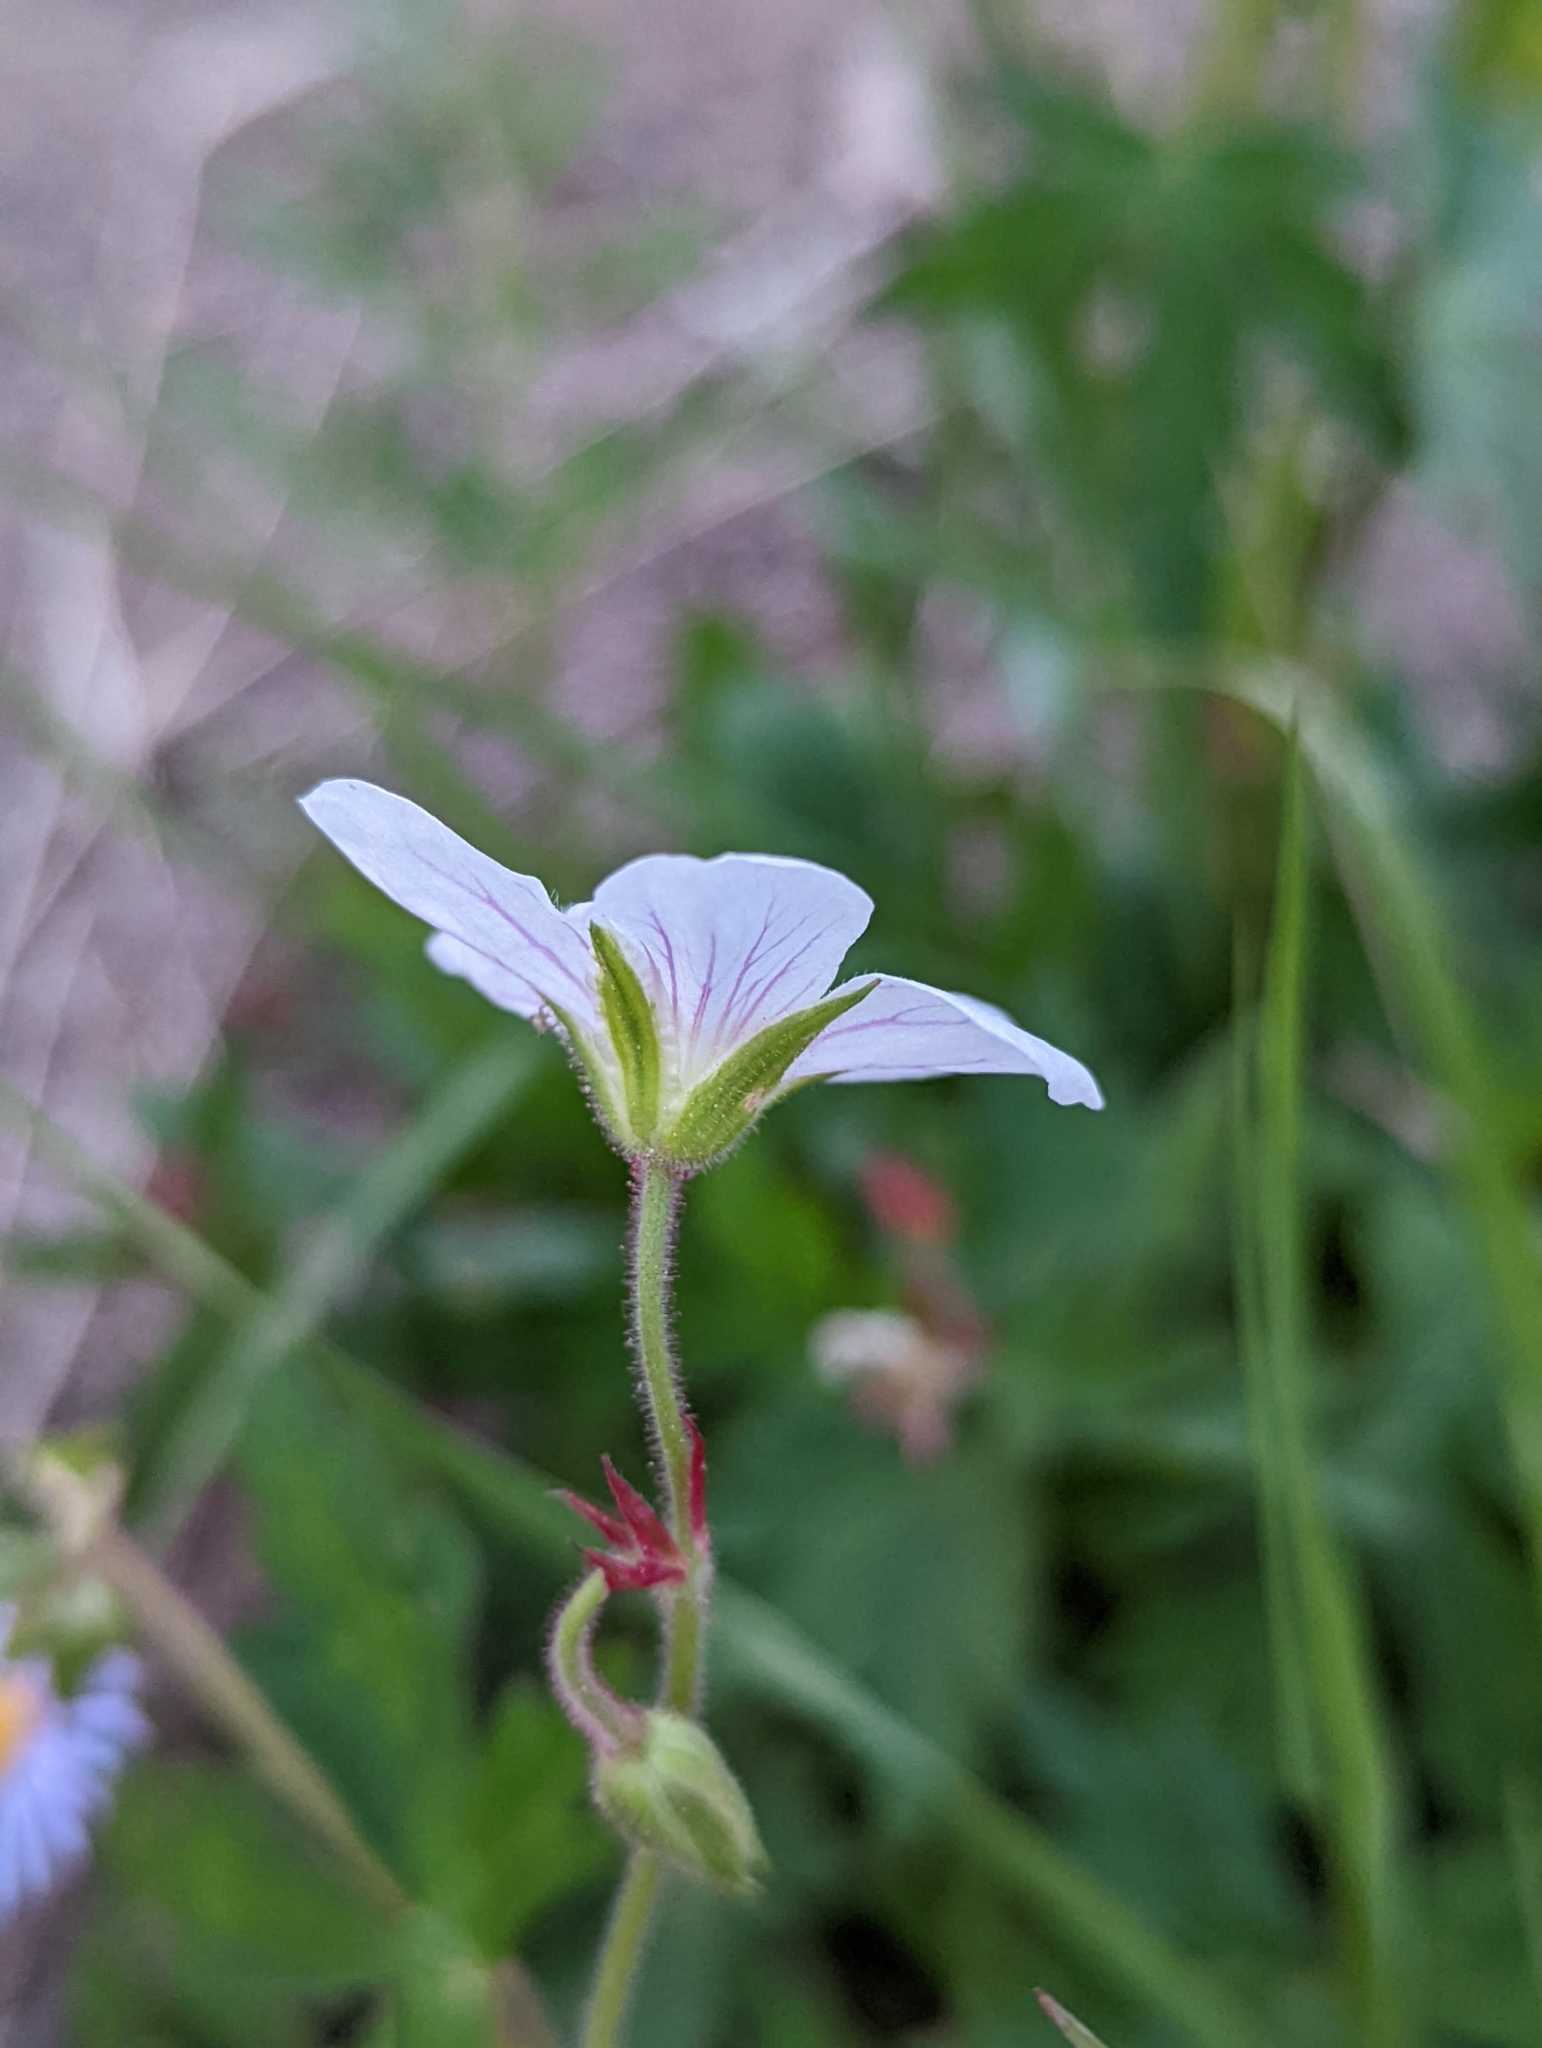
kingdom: Plantae
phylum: Tracheophyta
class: Magnoliopsida
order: Geraniales
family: Geraniaceae
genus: Geranium
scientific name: Geranium richardsonii
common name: Richardson's crane's-bill
